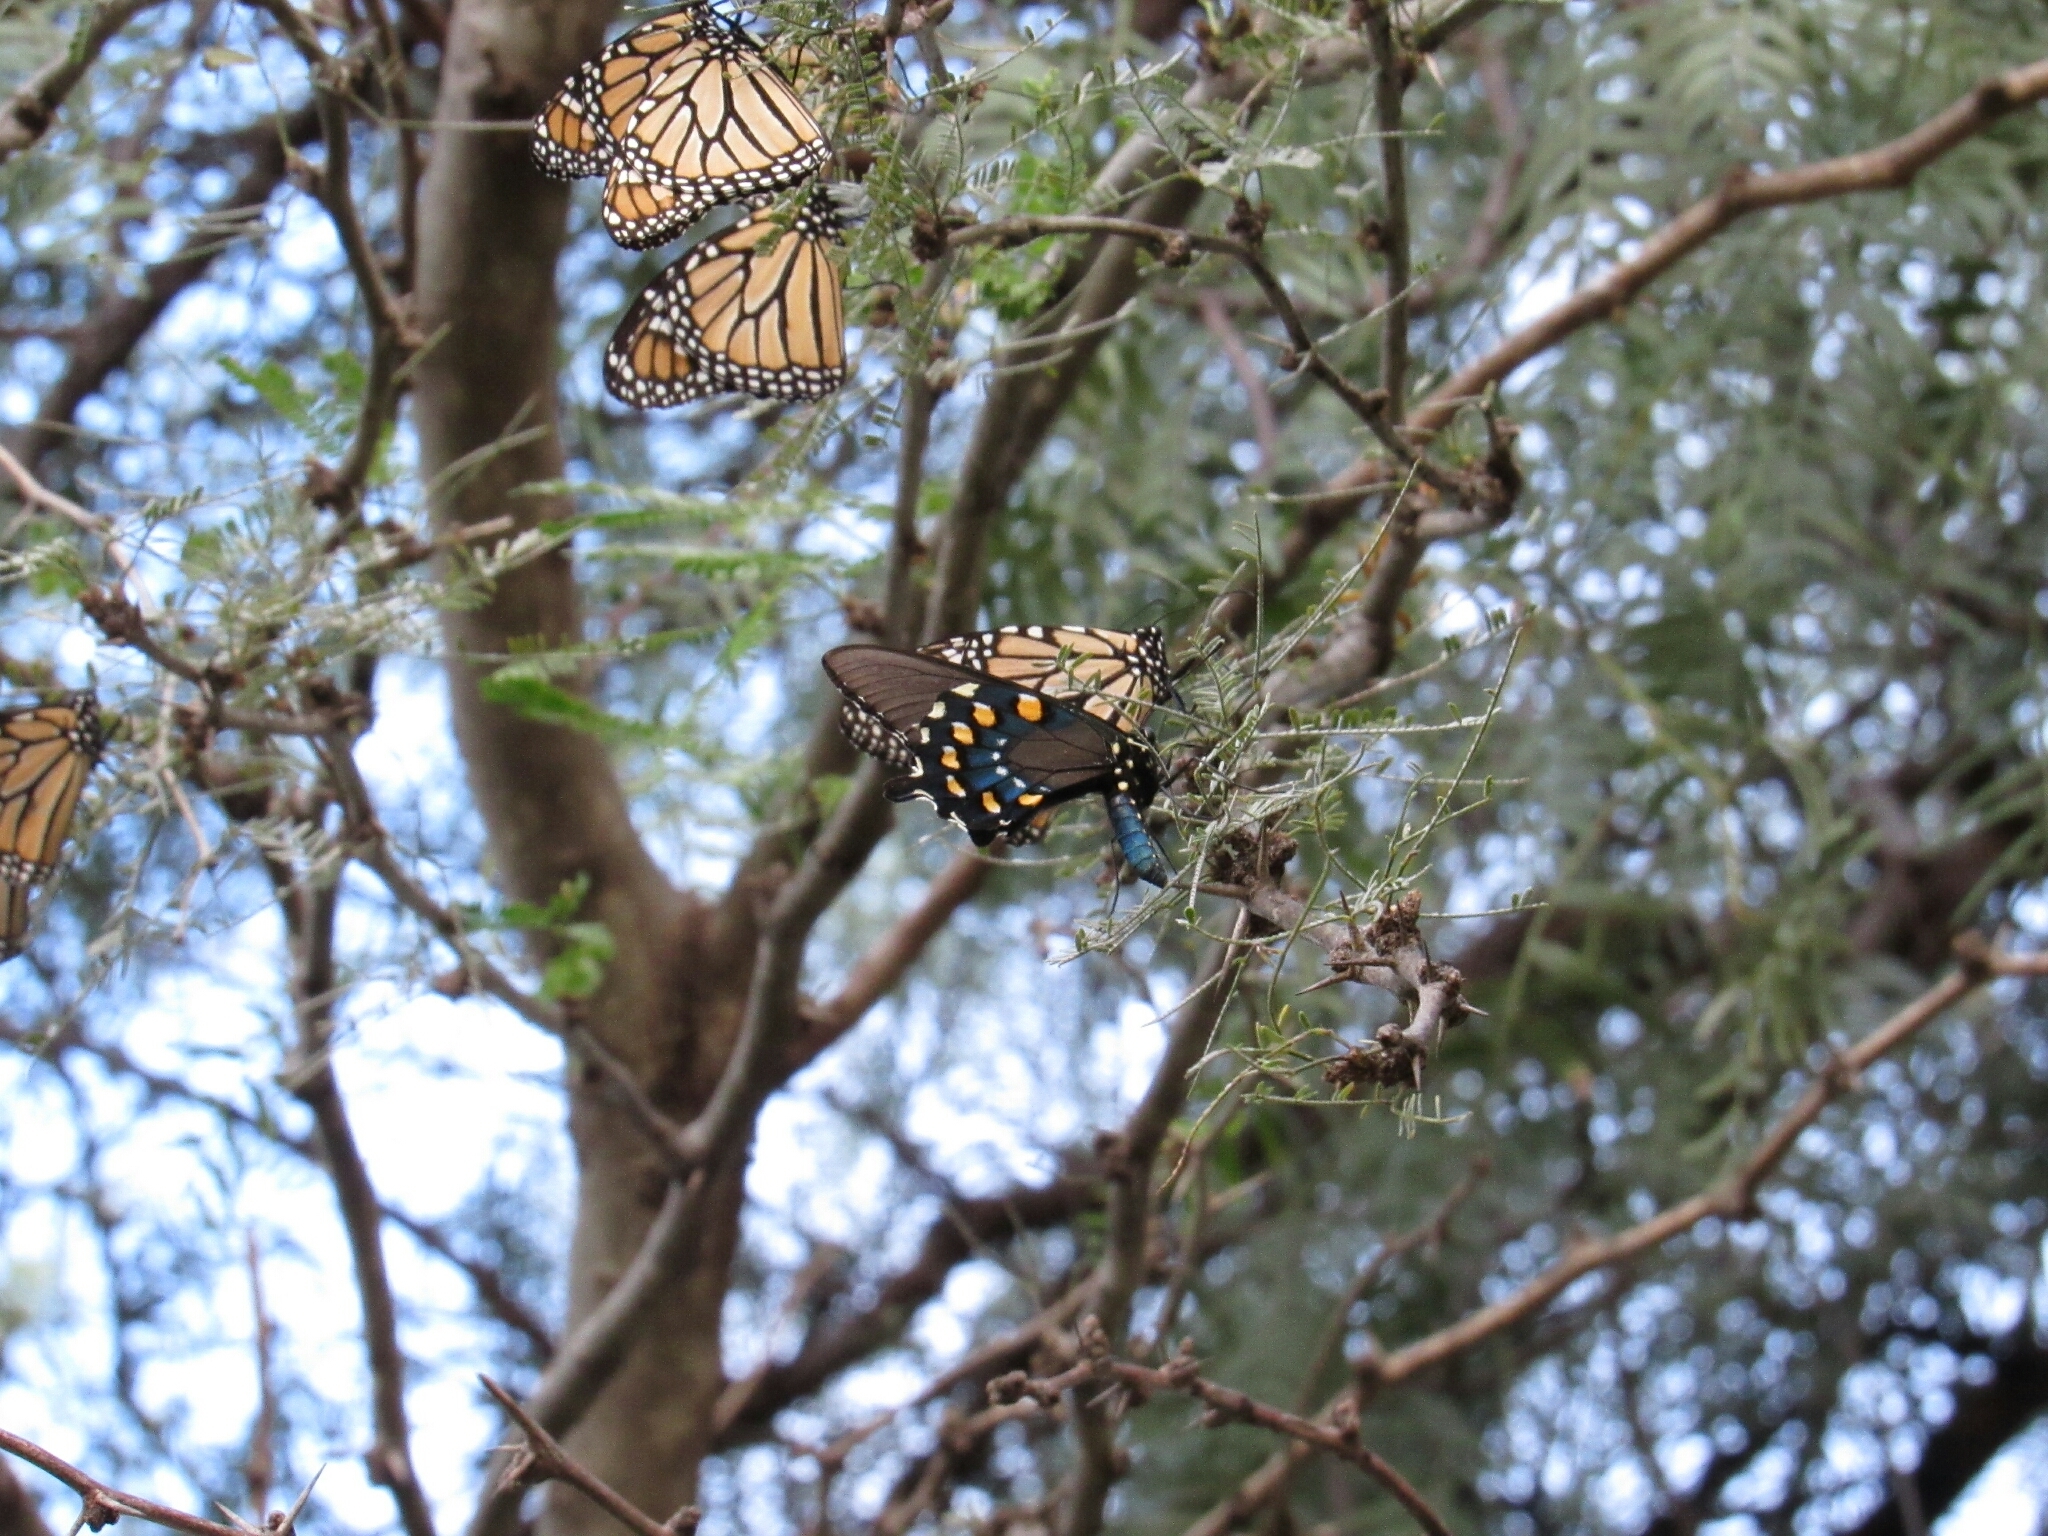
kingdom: Animalia
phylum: Arthropoda
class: Insecta
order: Lepidoptera
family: Nymphalidae
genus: Danaus
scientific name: Danaus plexippus
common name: Monarch
